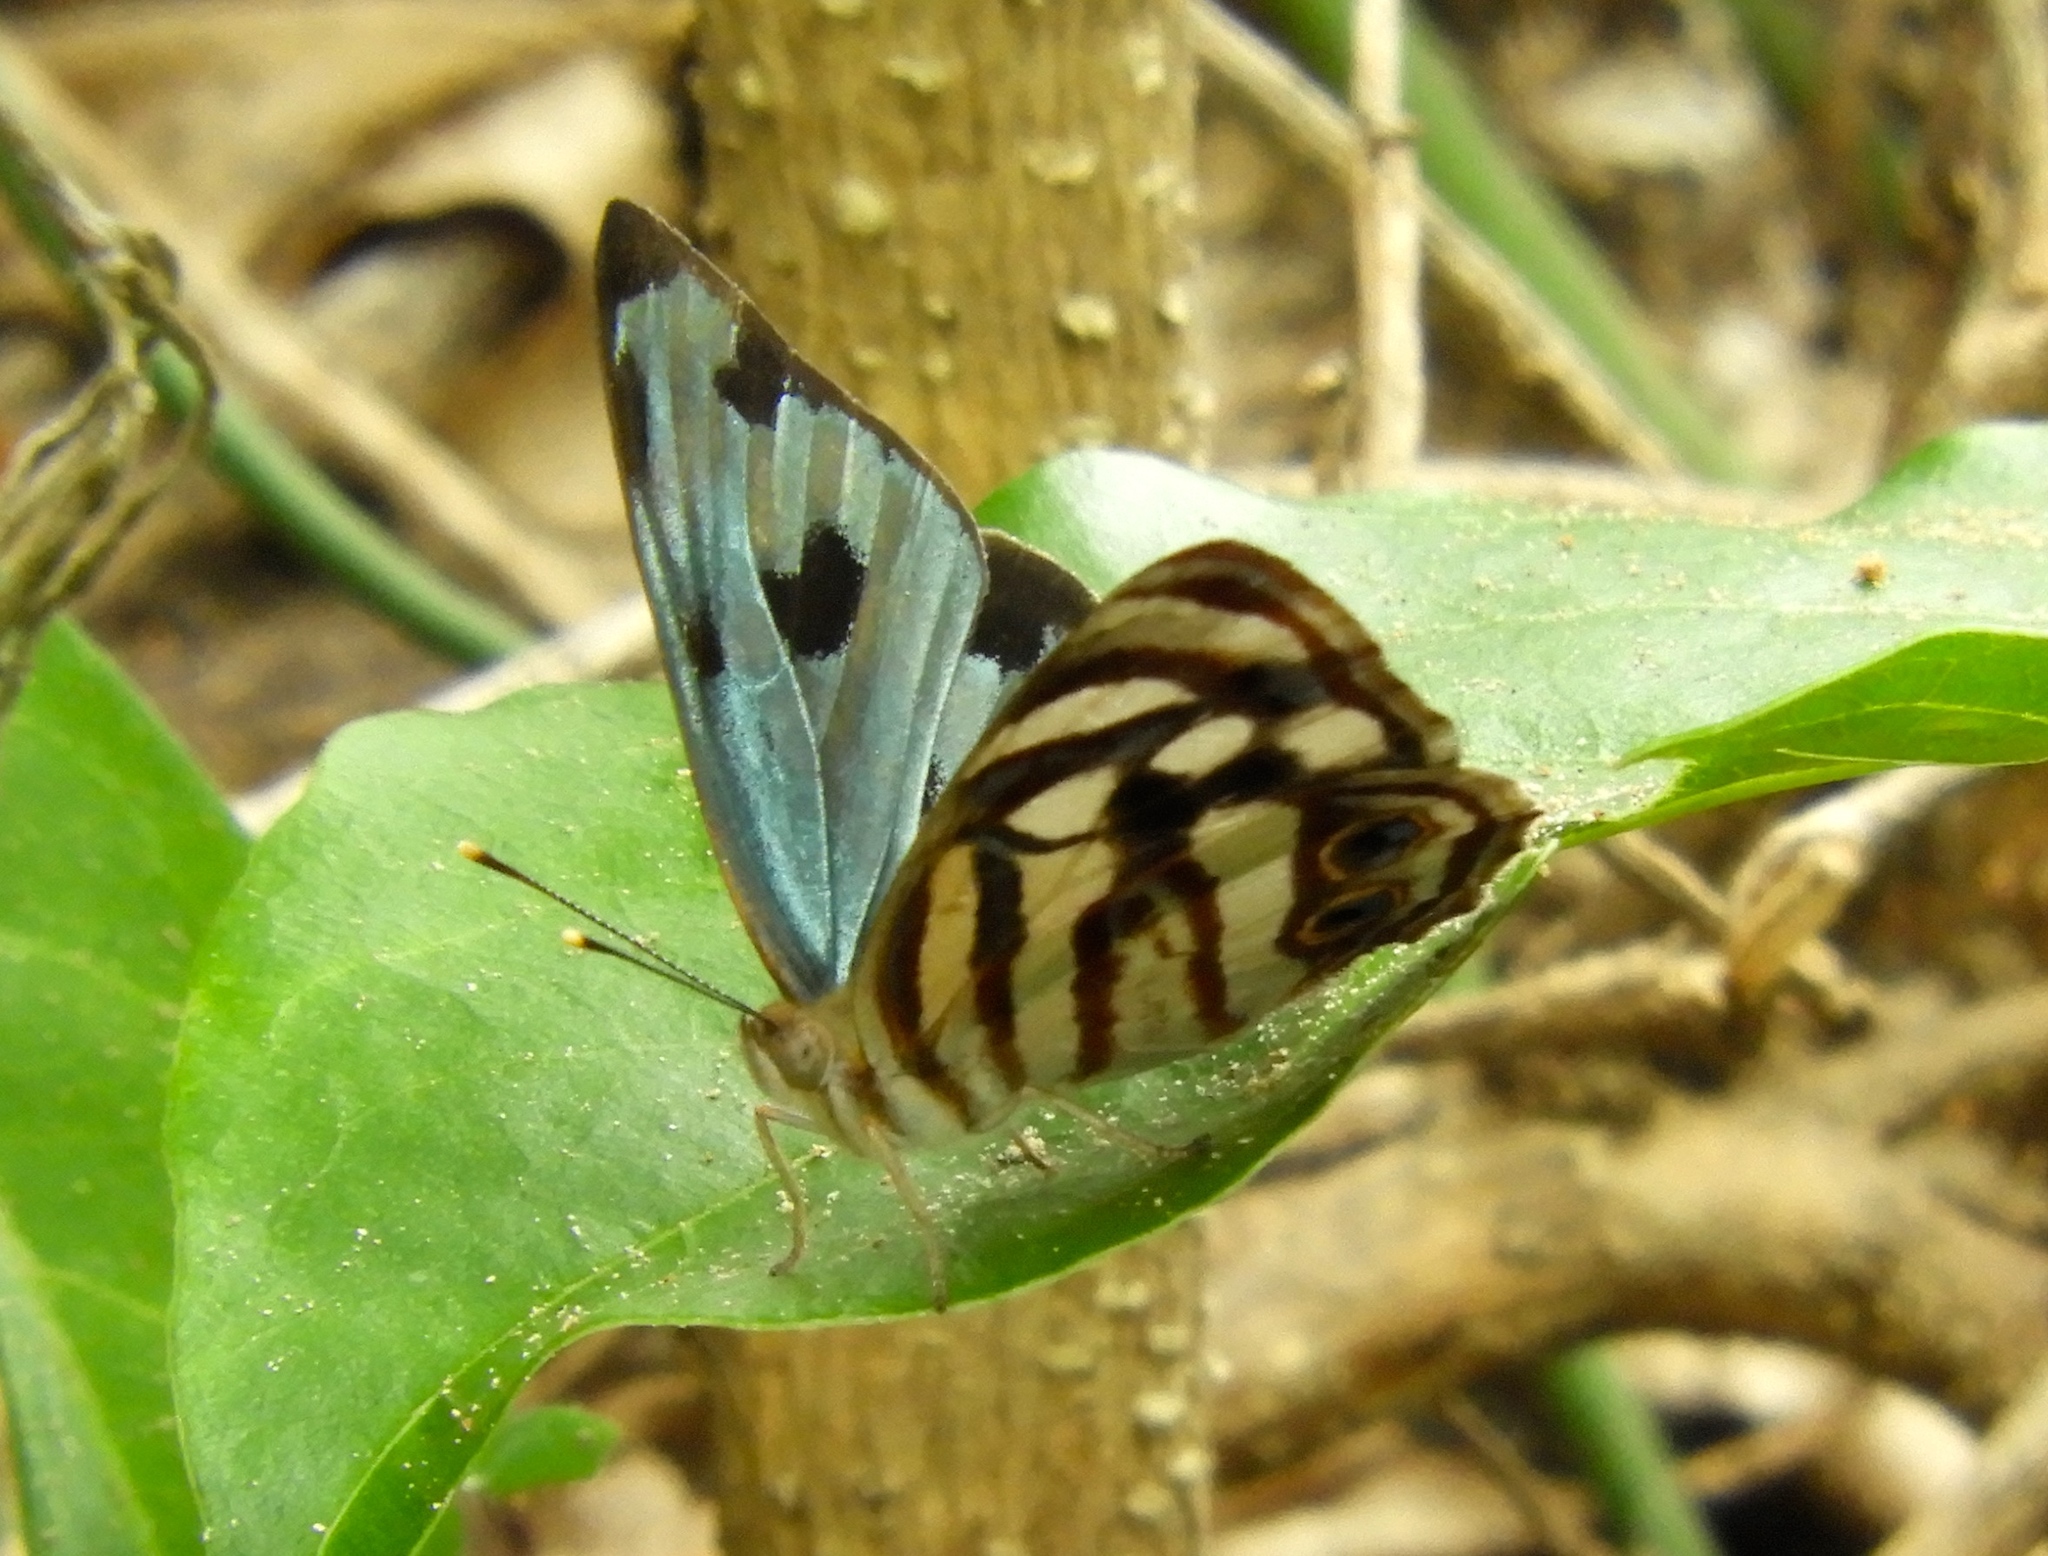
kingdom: Animalia
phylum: Arthropoda
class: Insecta
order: Lepidoptera
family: Nymphalidae
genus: Dynamine
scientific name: Dynamine mylitta
